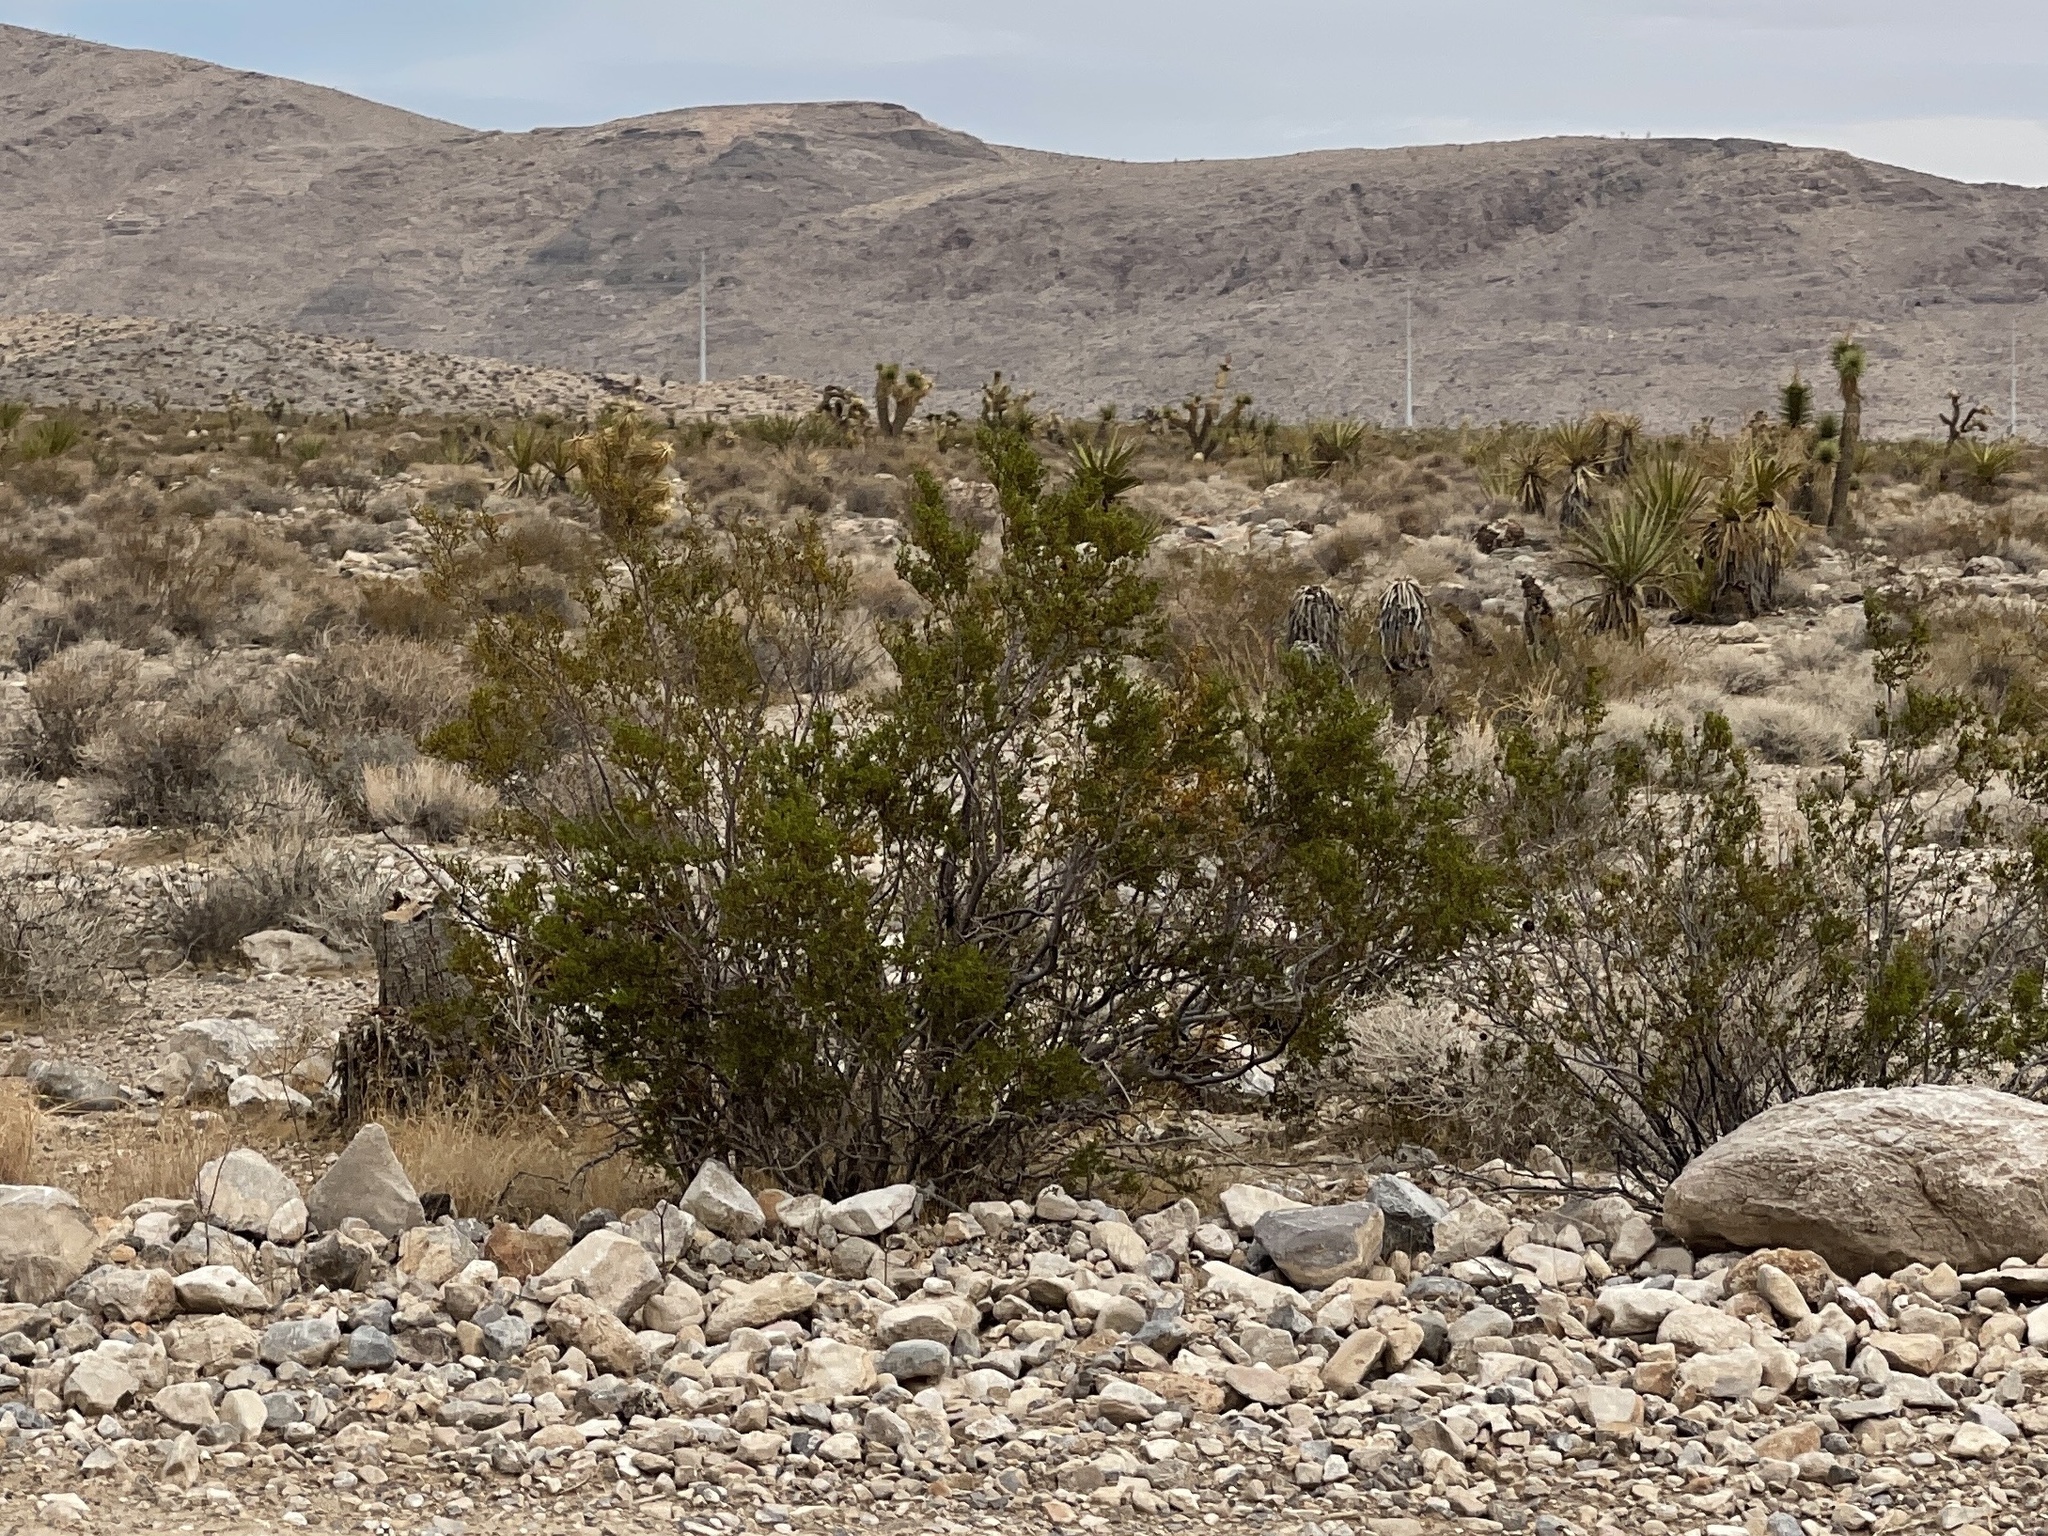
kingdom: Plantae
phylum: Tracheophyta
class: Magnoliopsida
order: Zygophyllales
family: Zygophyllaceae
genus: Larrea
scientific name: Larrea tridentata
